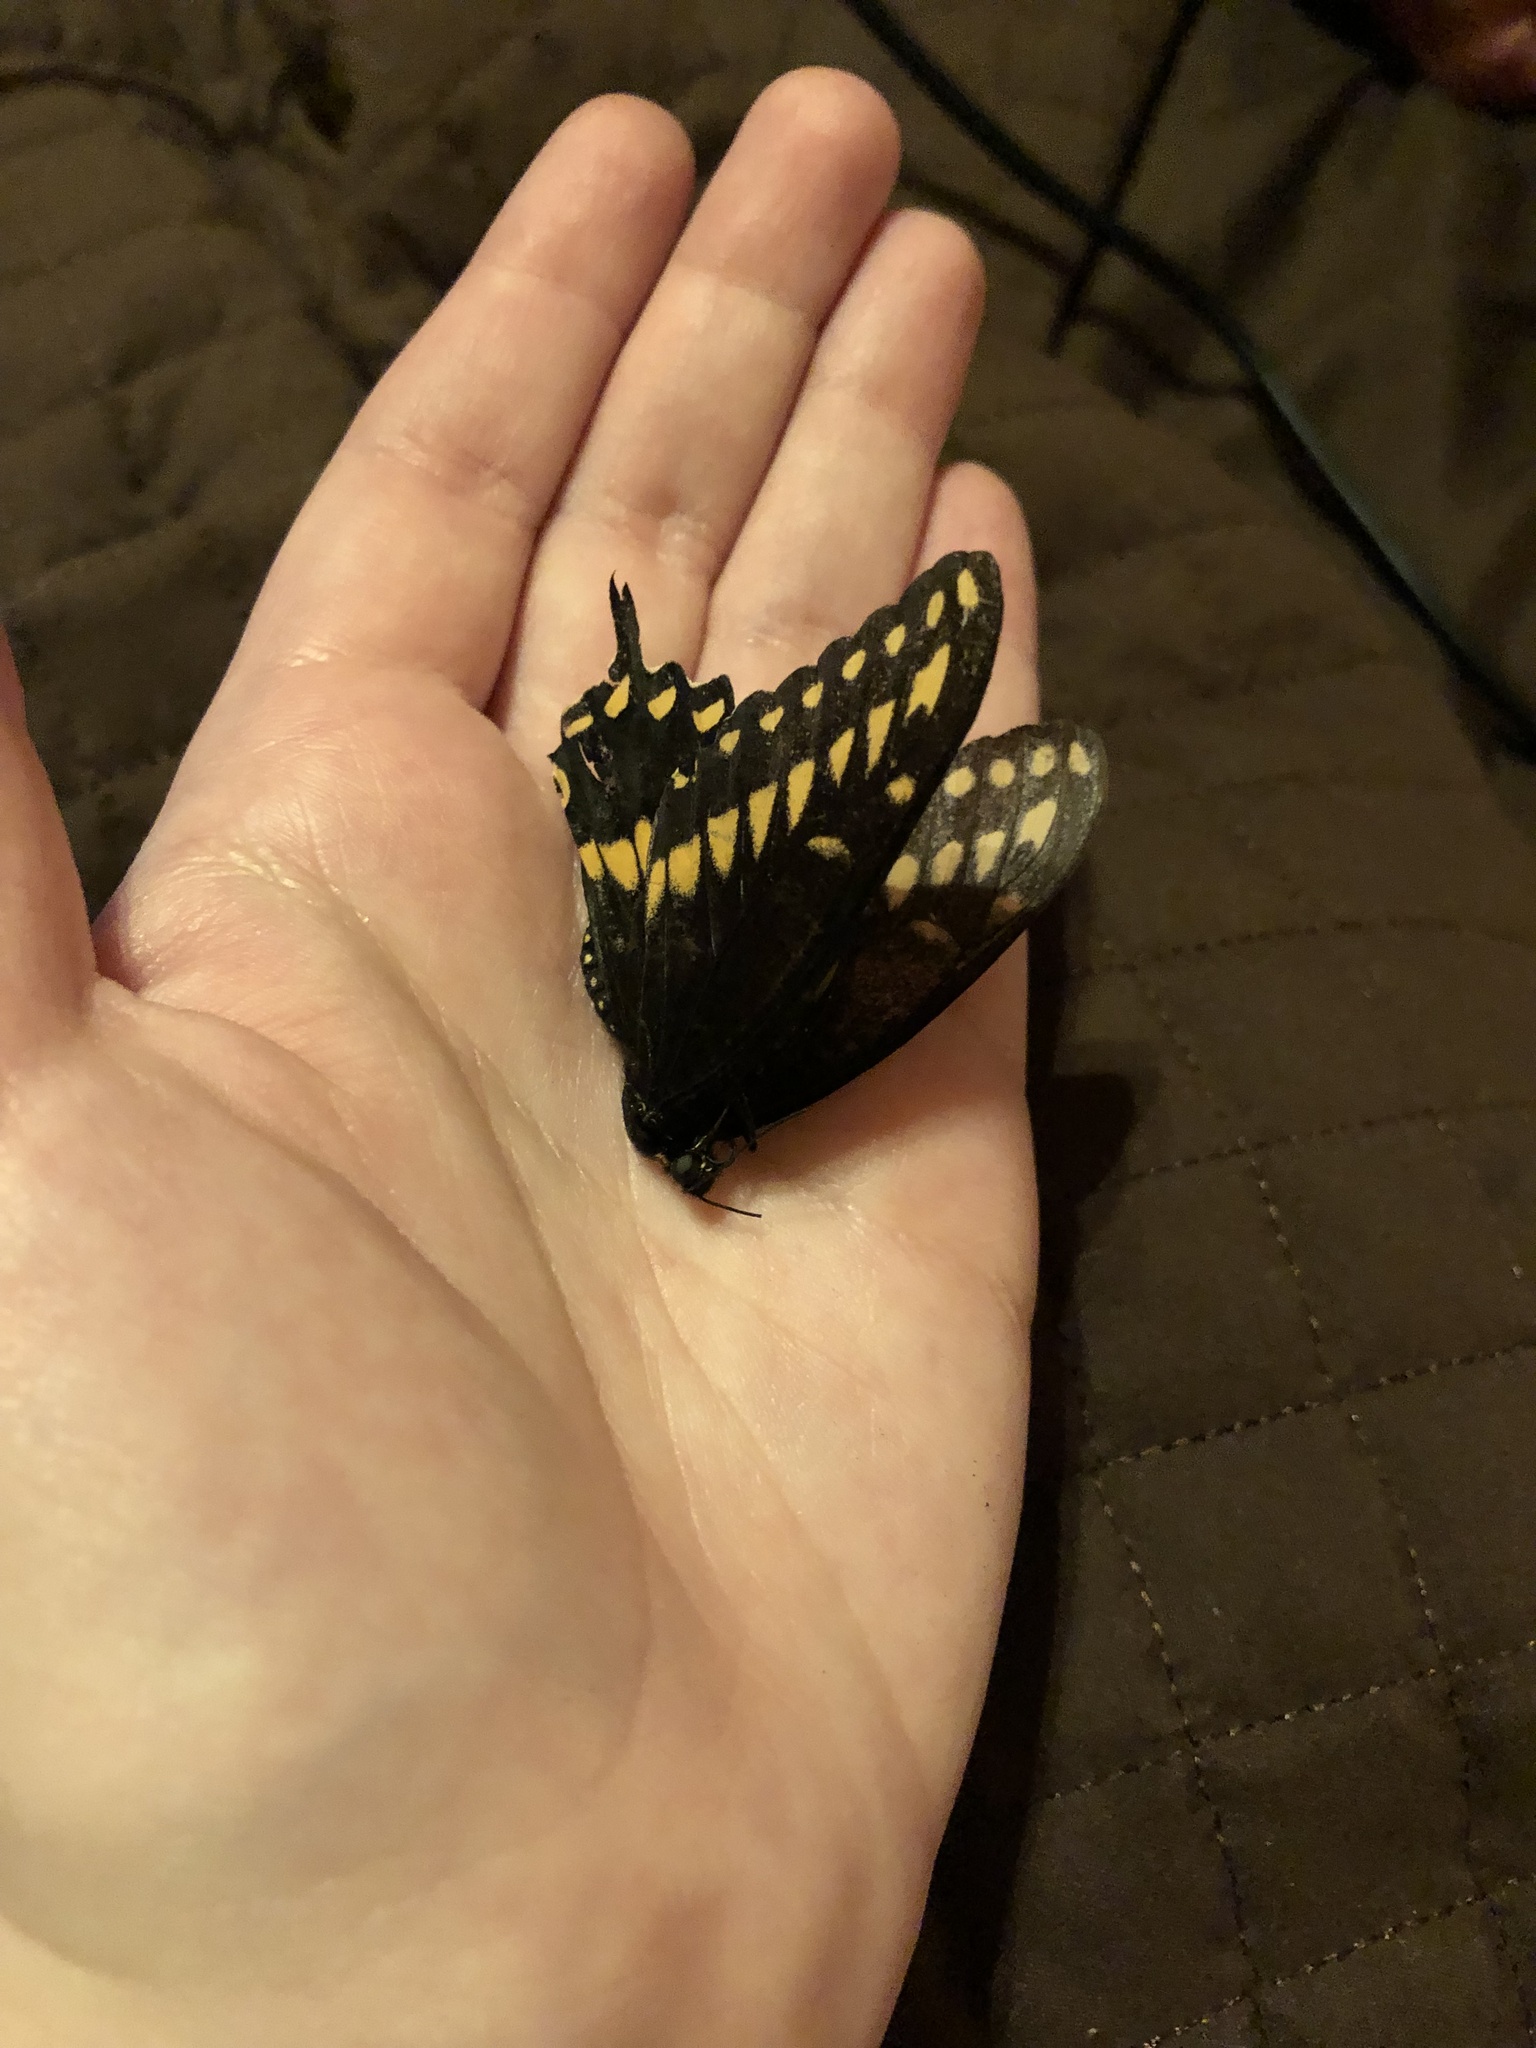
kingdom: Animalia
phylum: Arthropoda
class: Insecta
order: Lepidoptera
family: Papilionidae
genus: Papilio
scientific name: Papilio polyxenes
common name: Black swallowtail
